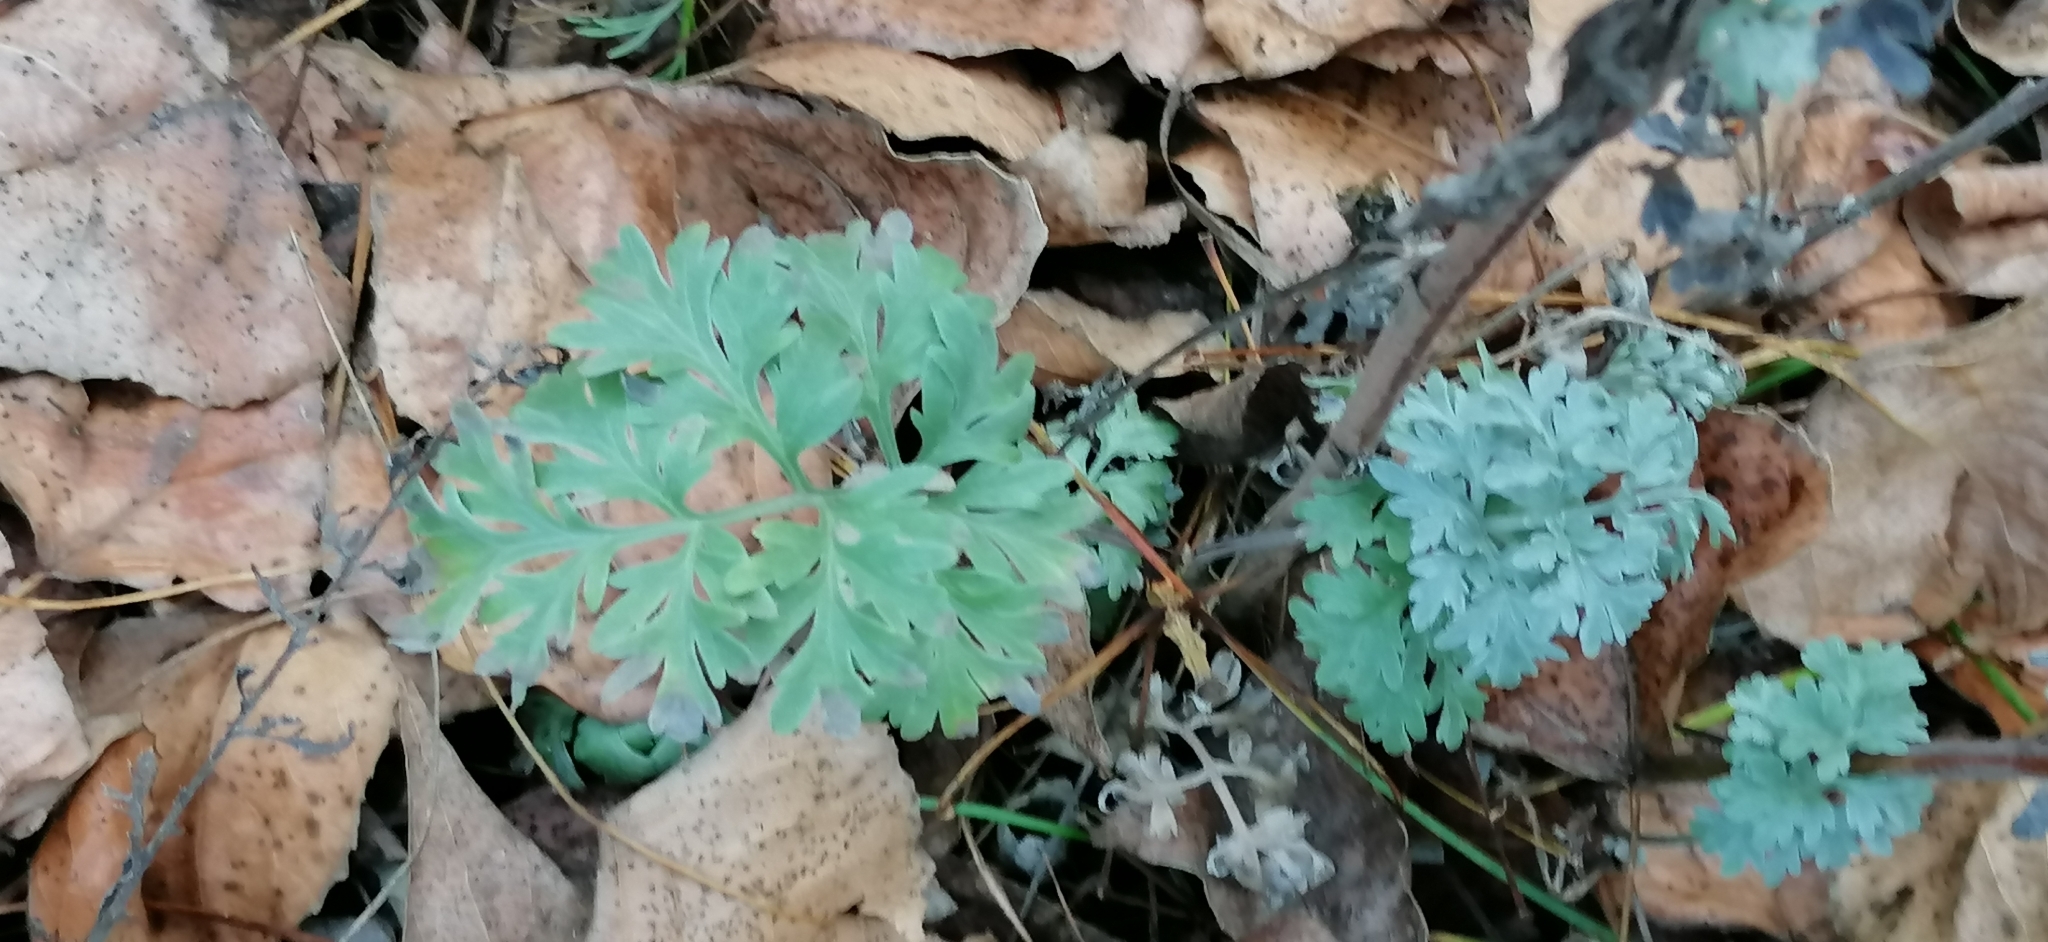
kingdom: Plantae
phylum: Tracheophyta
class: Magnoliopsida
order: Asterales
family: Asteraceae
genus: Artemisia
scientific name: Artemisia absinthium
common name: Wormwood
